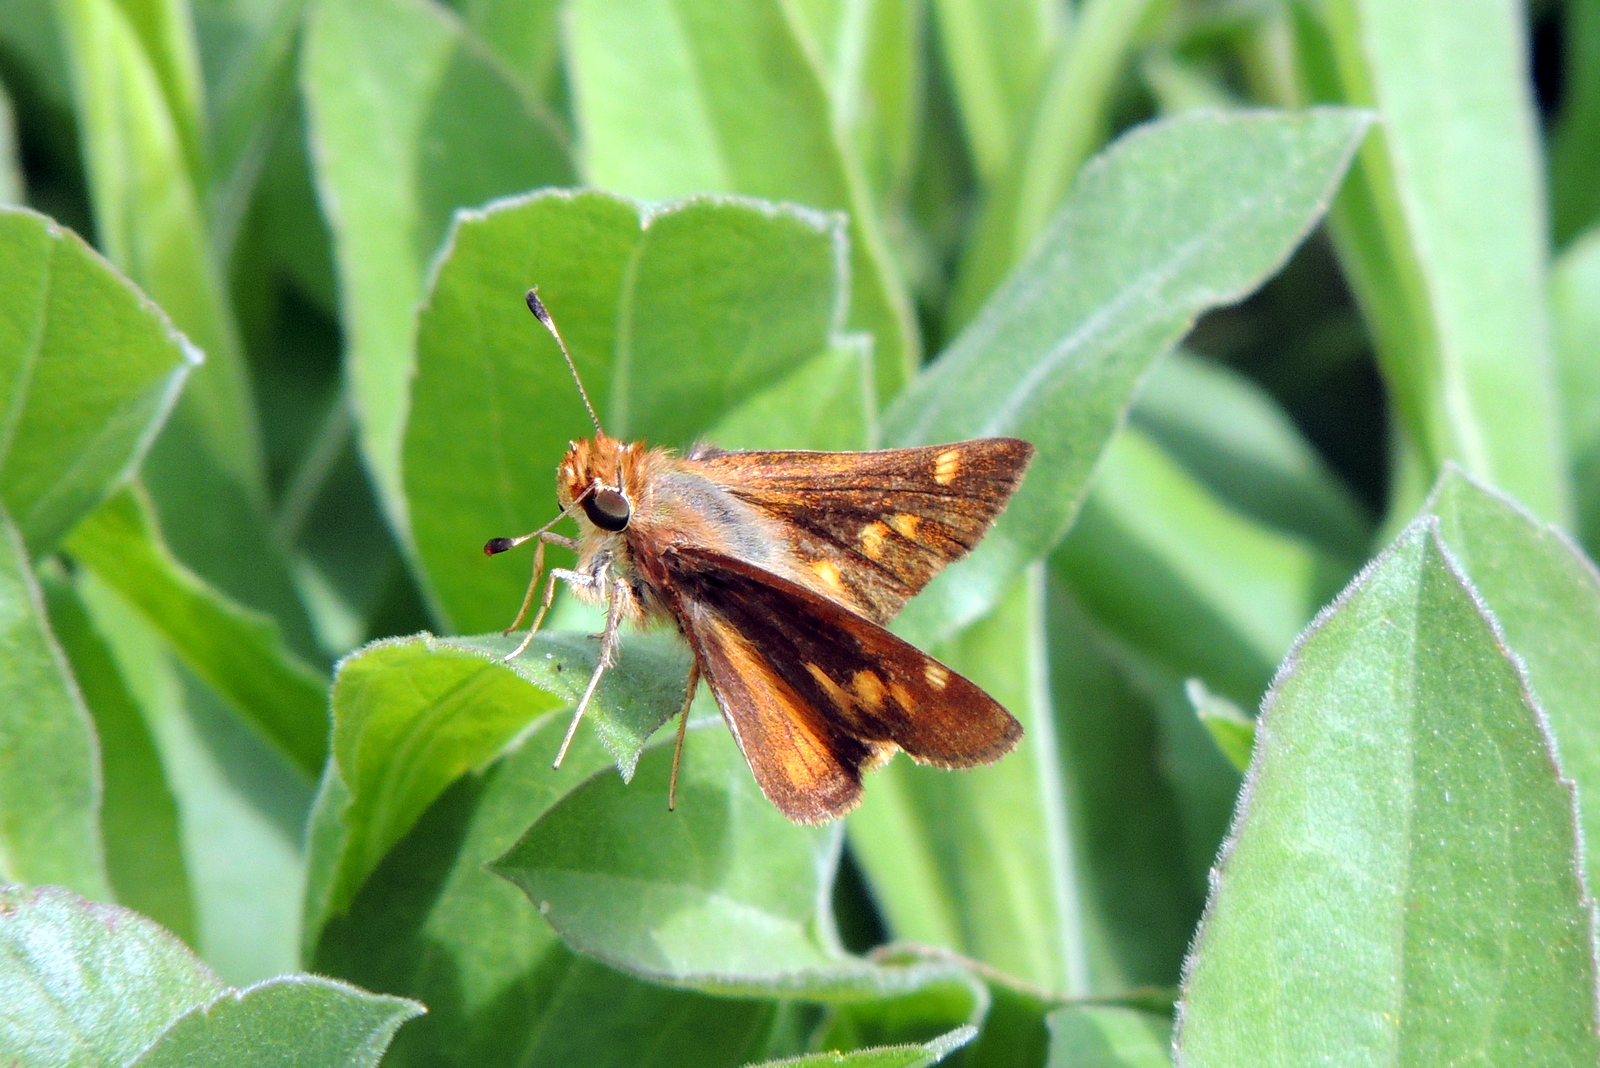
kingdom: Animalia
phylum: Arthropoda
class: Insecta
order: Lepidoptera
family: Hesperiidae
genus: Lon
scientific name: Lon melane
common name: Umber skipper
